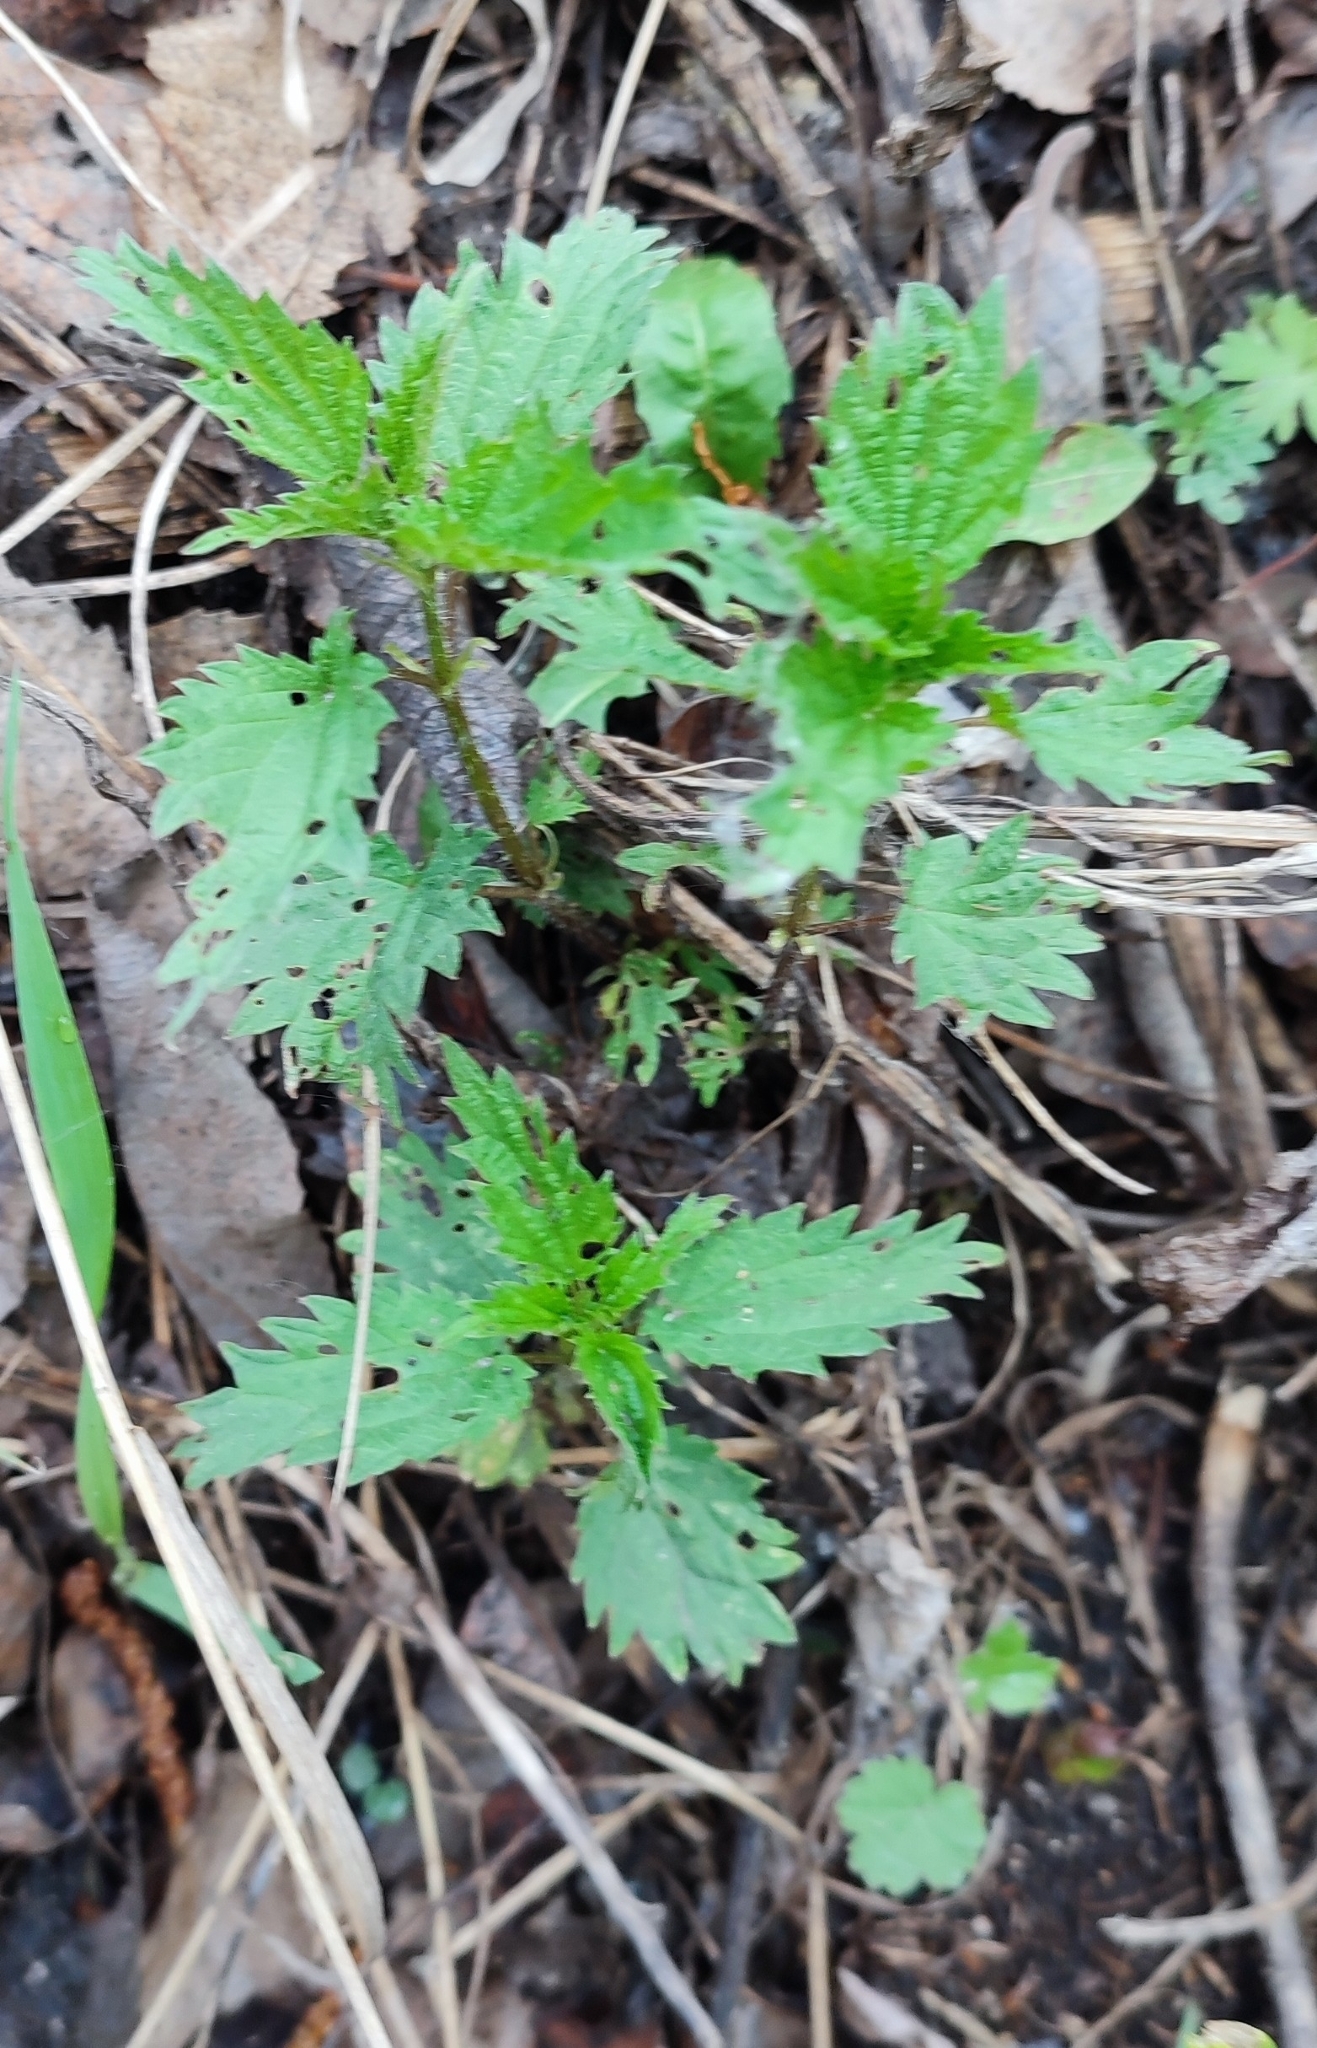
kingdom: Plantae
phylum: Tracheophyta
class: Magnoliopsida
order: Rosales
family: Urticaceae
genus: Urtica
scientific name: Urtica dioica
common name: Common nettle
